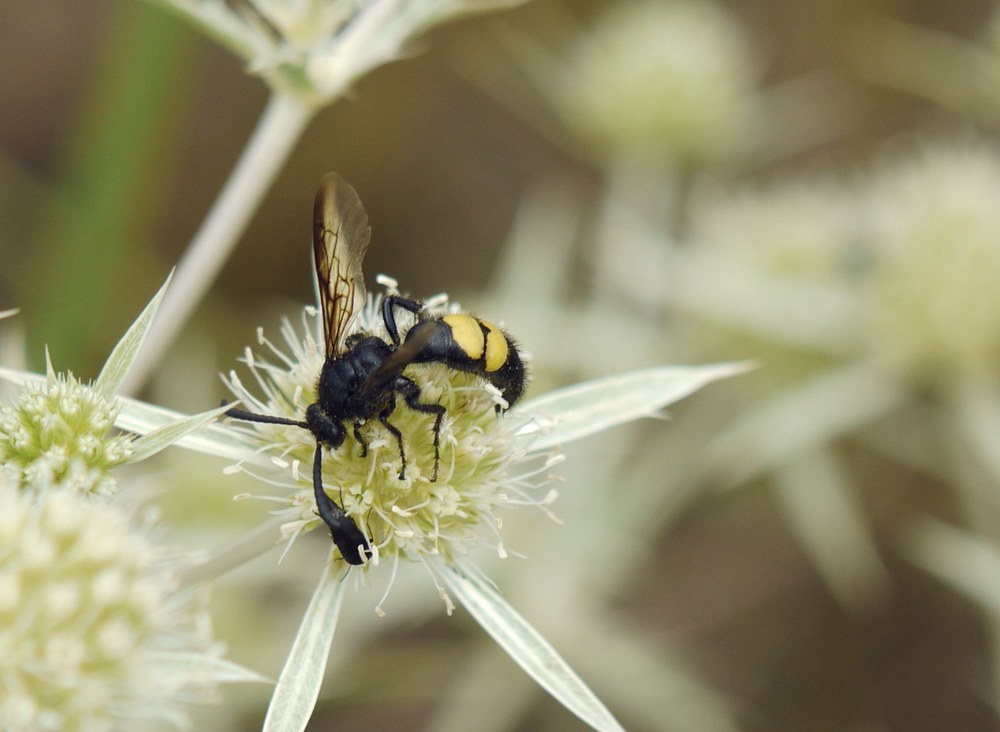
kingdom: Animalia
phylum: Arthropoda
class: Insecta
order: Hymenoptera
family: Scoliidae
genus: Scolia
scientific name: Scolia hirta
